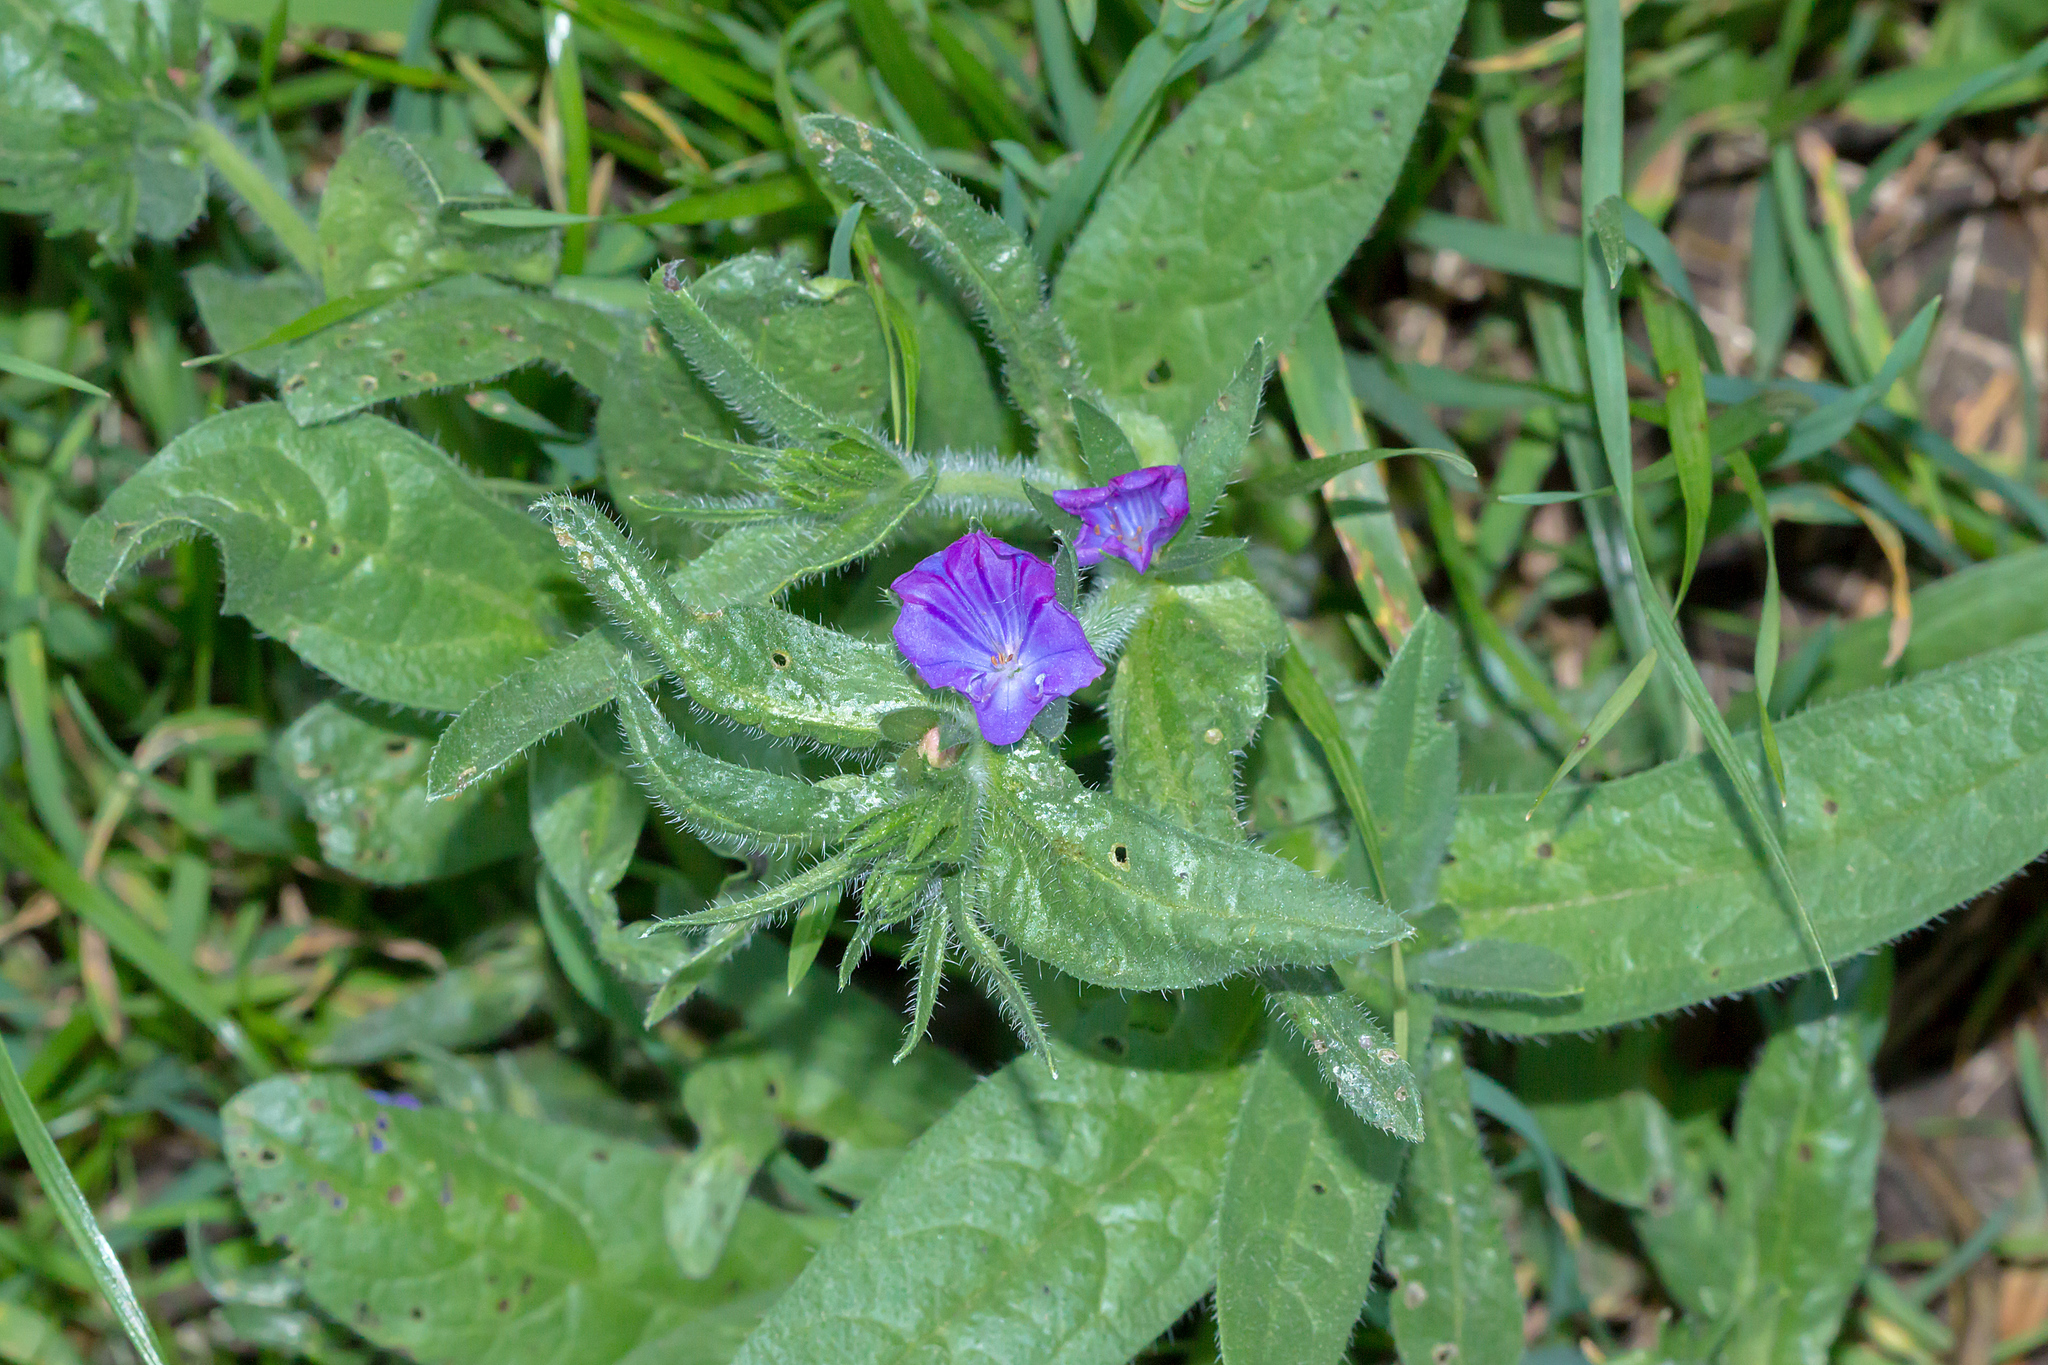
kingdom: Plantae
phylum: Tracheophyta
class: Magnoliopsida
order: Boraginales
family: Boraginaceae
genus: Echium
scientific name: Echium plantagineum
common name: Purple viper's-bugloss
